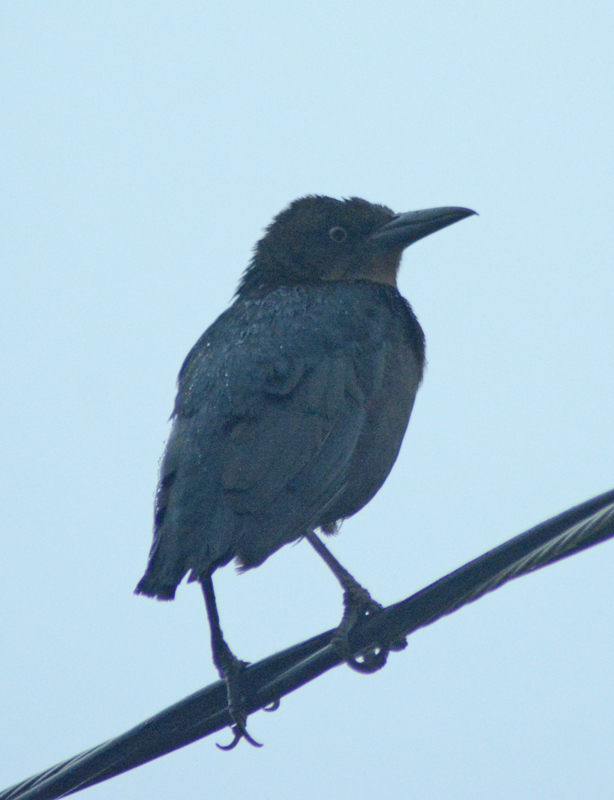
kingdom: Animalia
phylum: Chordata
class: Aves
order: Passeriformes
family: Icteridae
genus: Quiscalus
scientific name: Quiscalus mexicanus
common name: Great-tailed grackle
